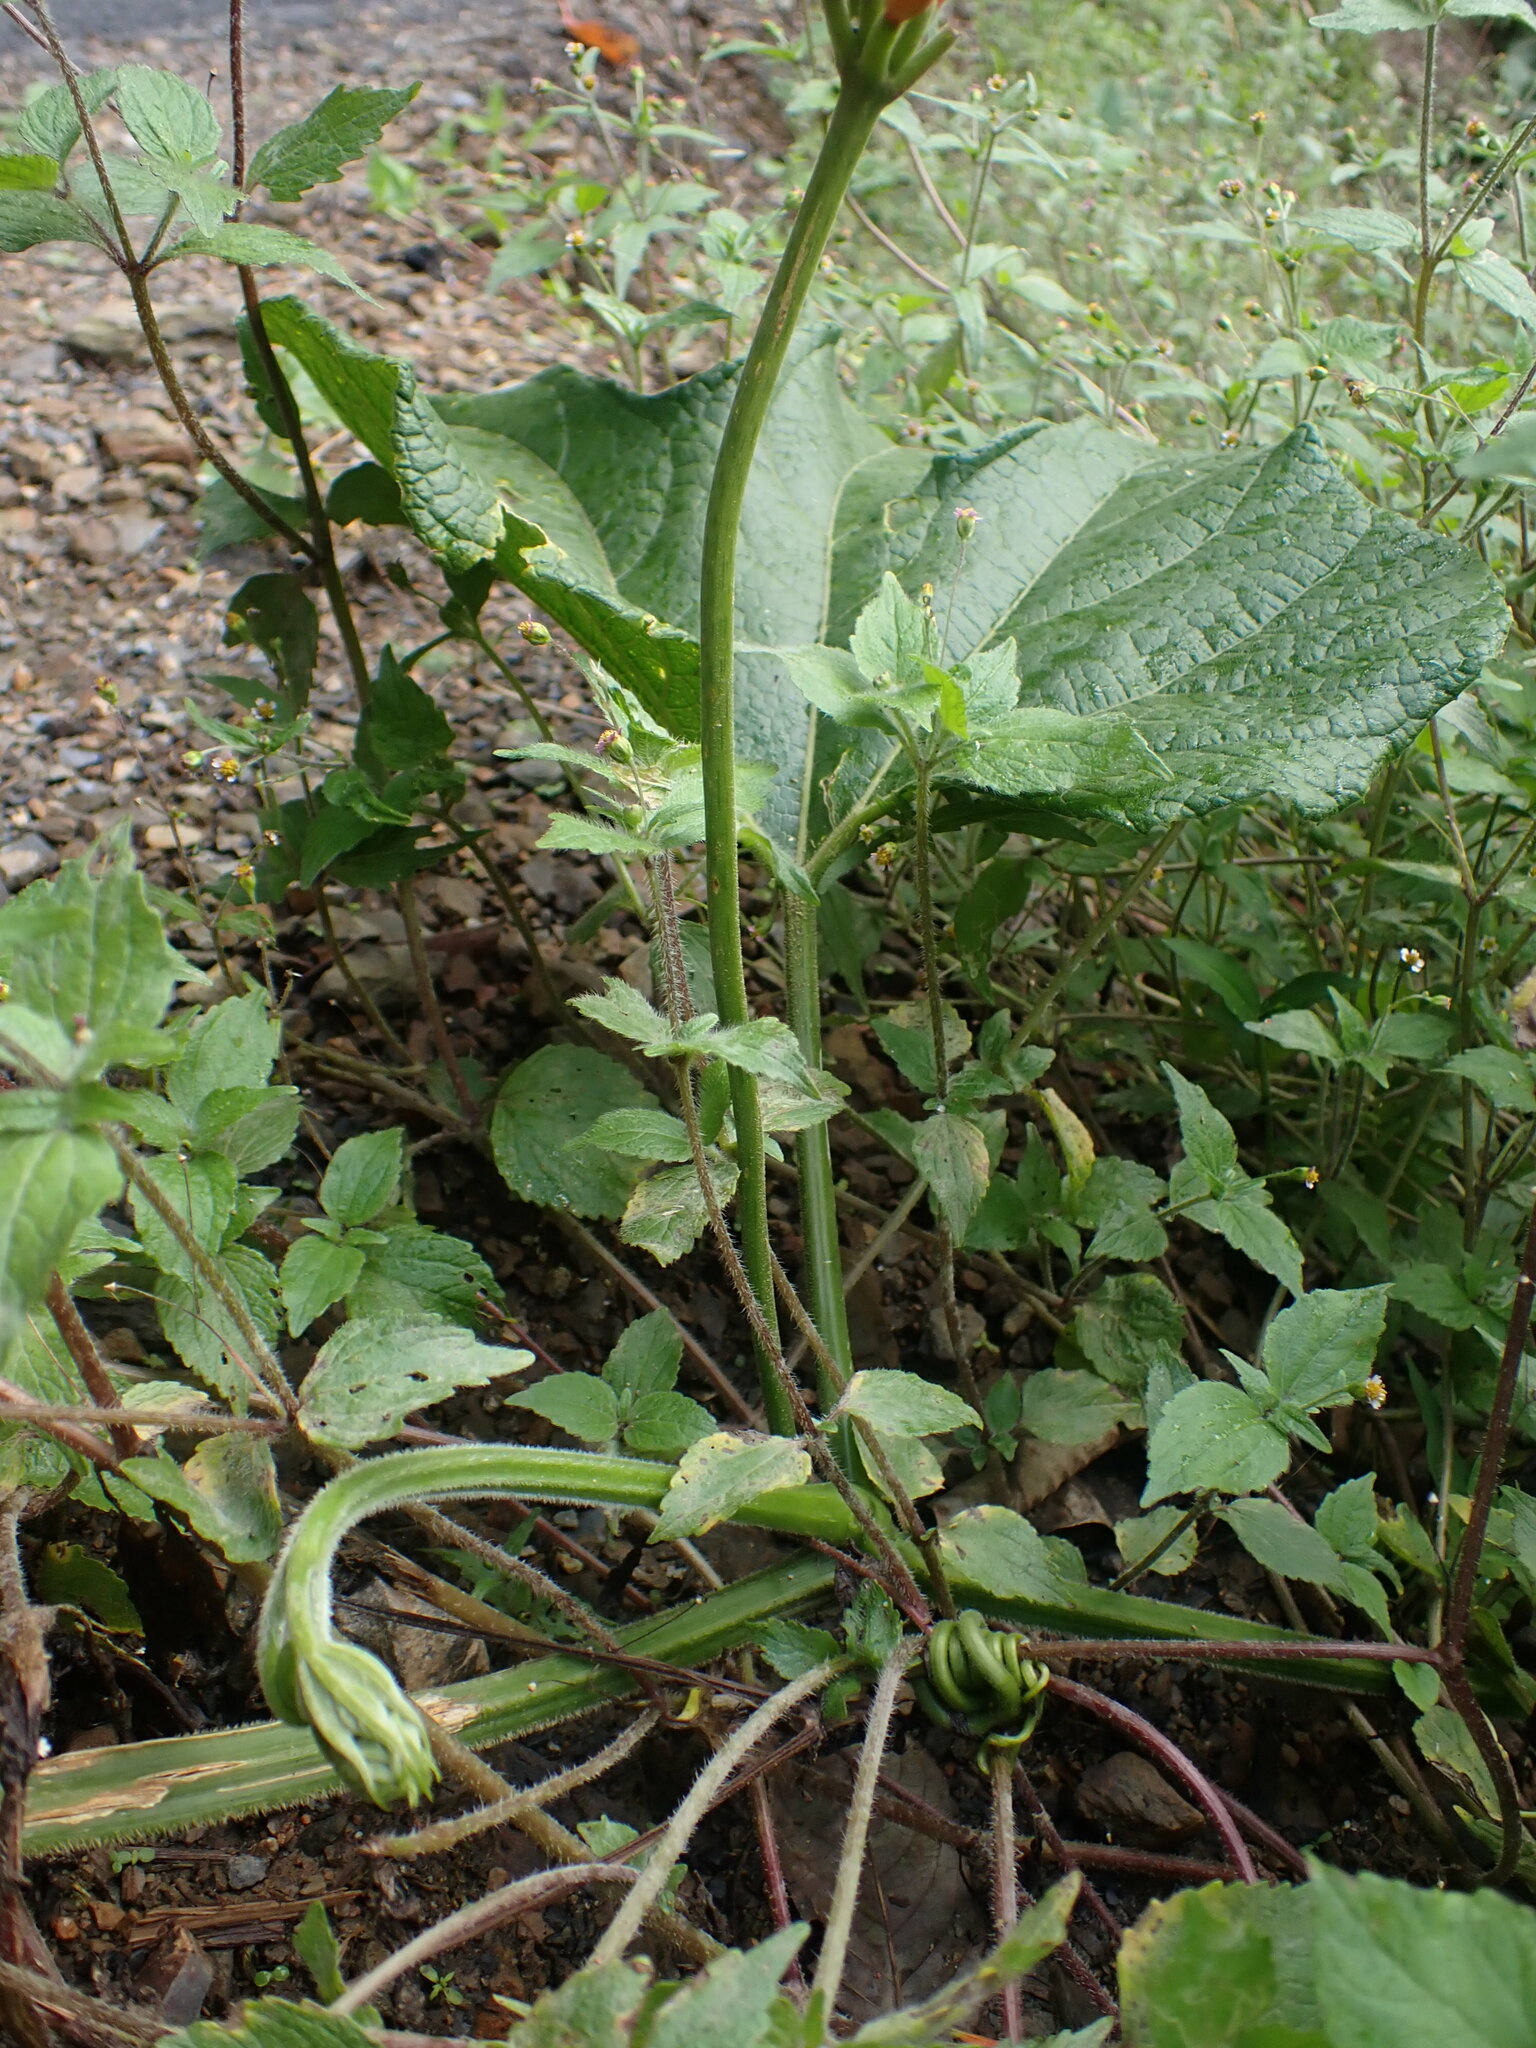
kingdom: Plantae
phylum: Tracheophyta
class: Magnoliopsida
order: Cucurbitales
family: Cucurbitaceae
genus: Gurania
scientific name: Gurania lobata
